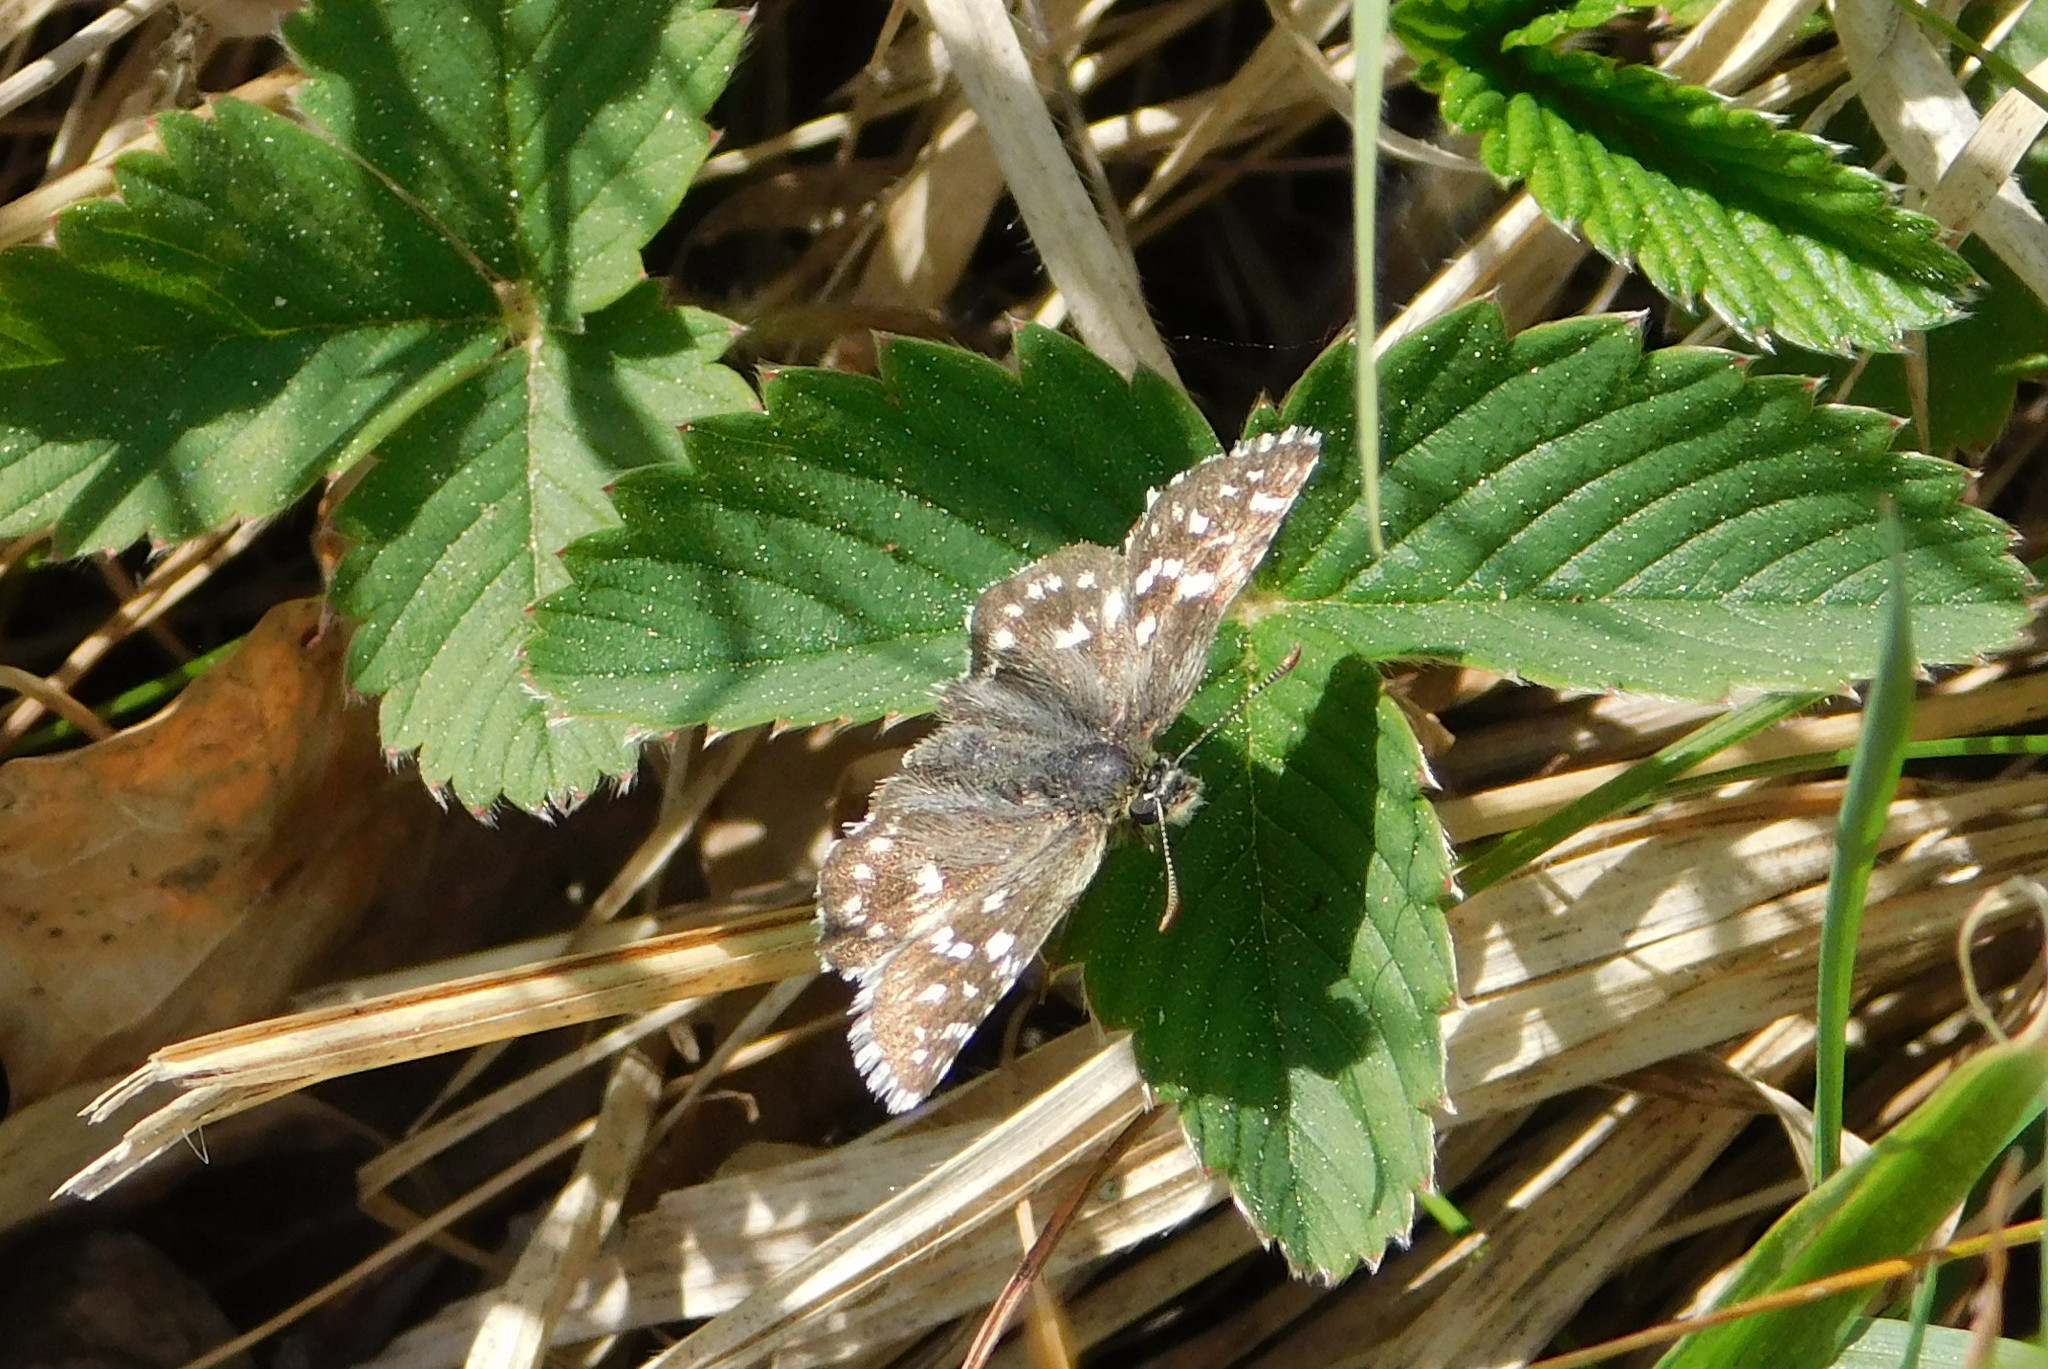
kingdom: Animalia
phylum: Arthropoda
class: Insecta
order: Lepidoptera
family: Hesperiidae
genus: Pyrgus
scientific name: Pyrgus malvae
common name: Grizzled skipper
